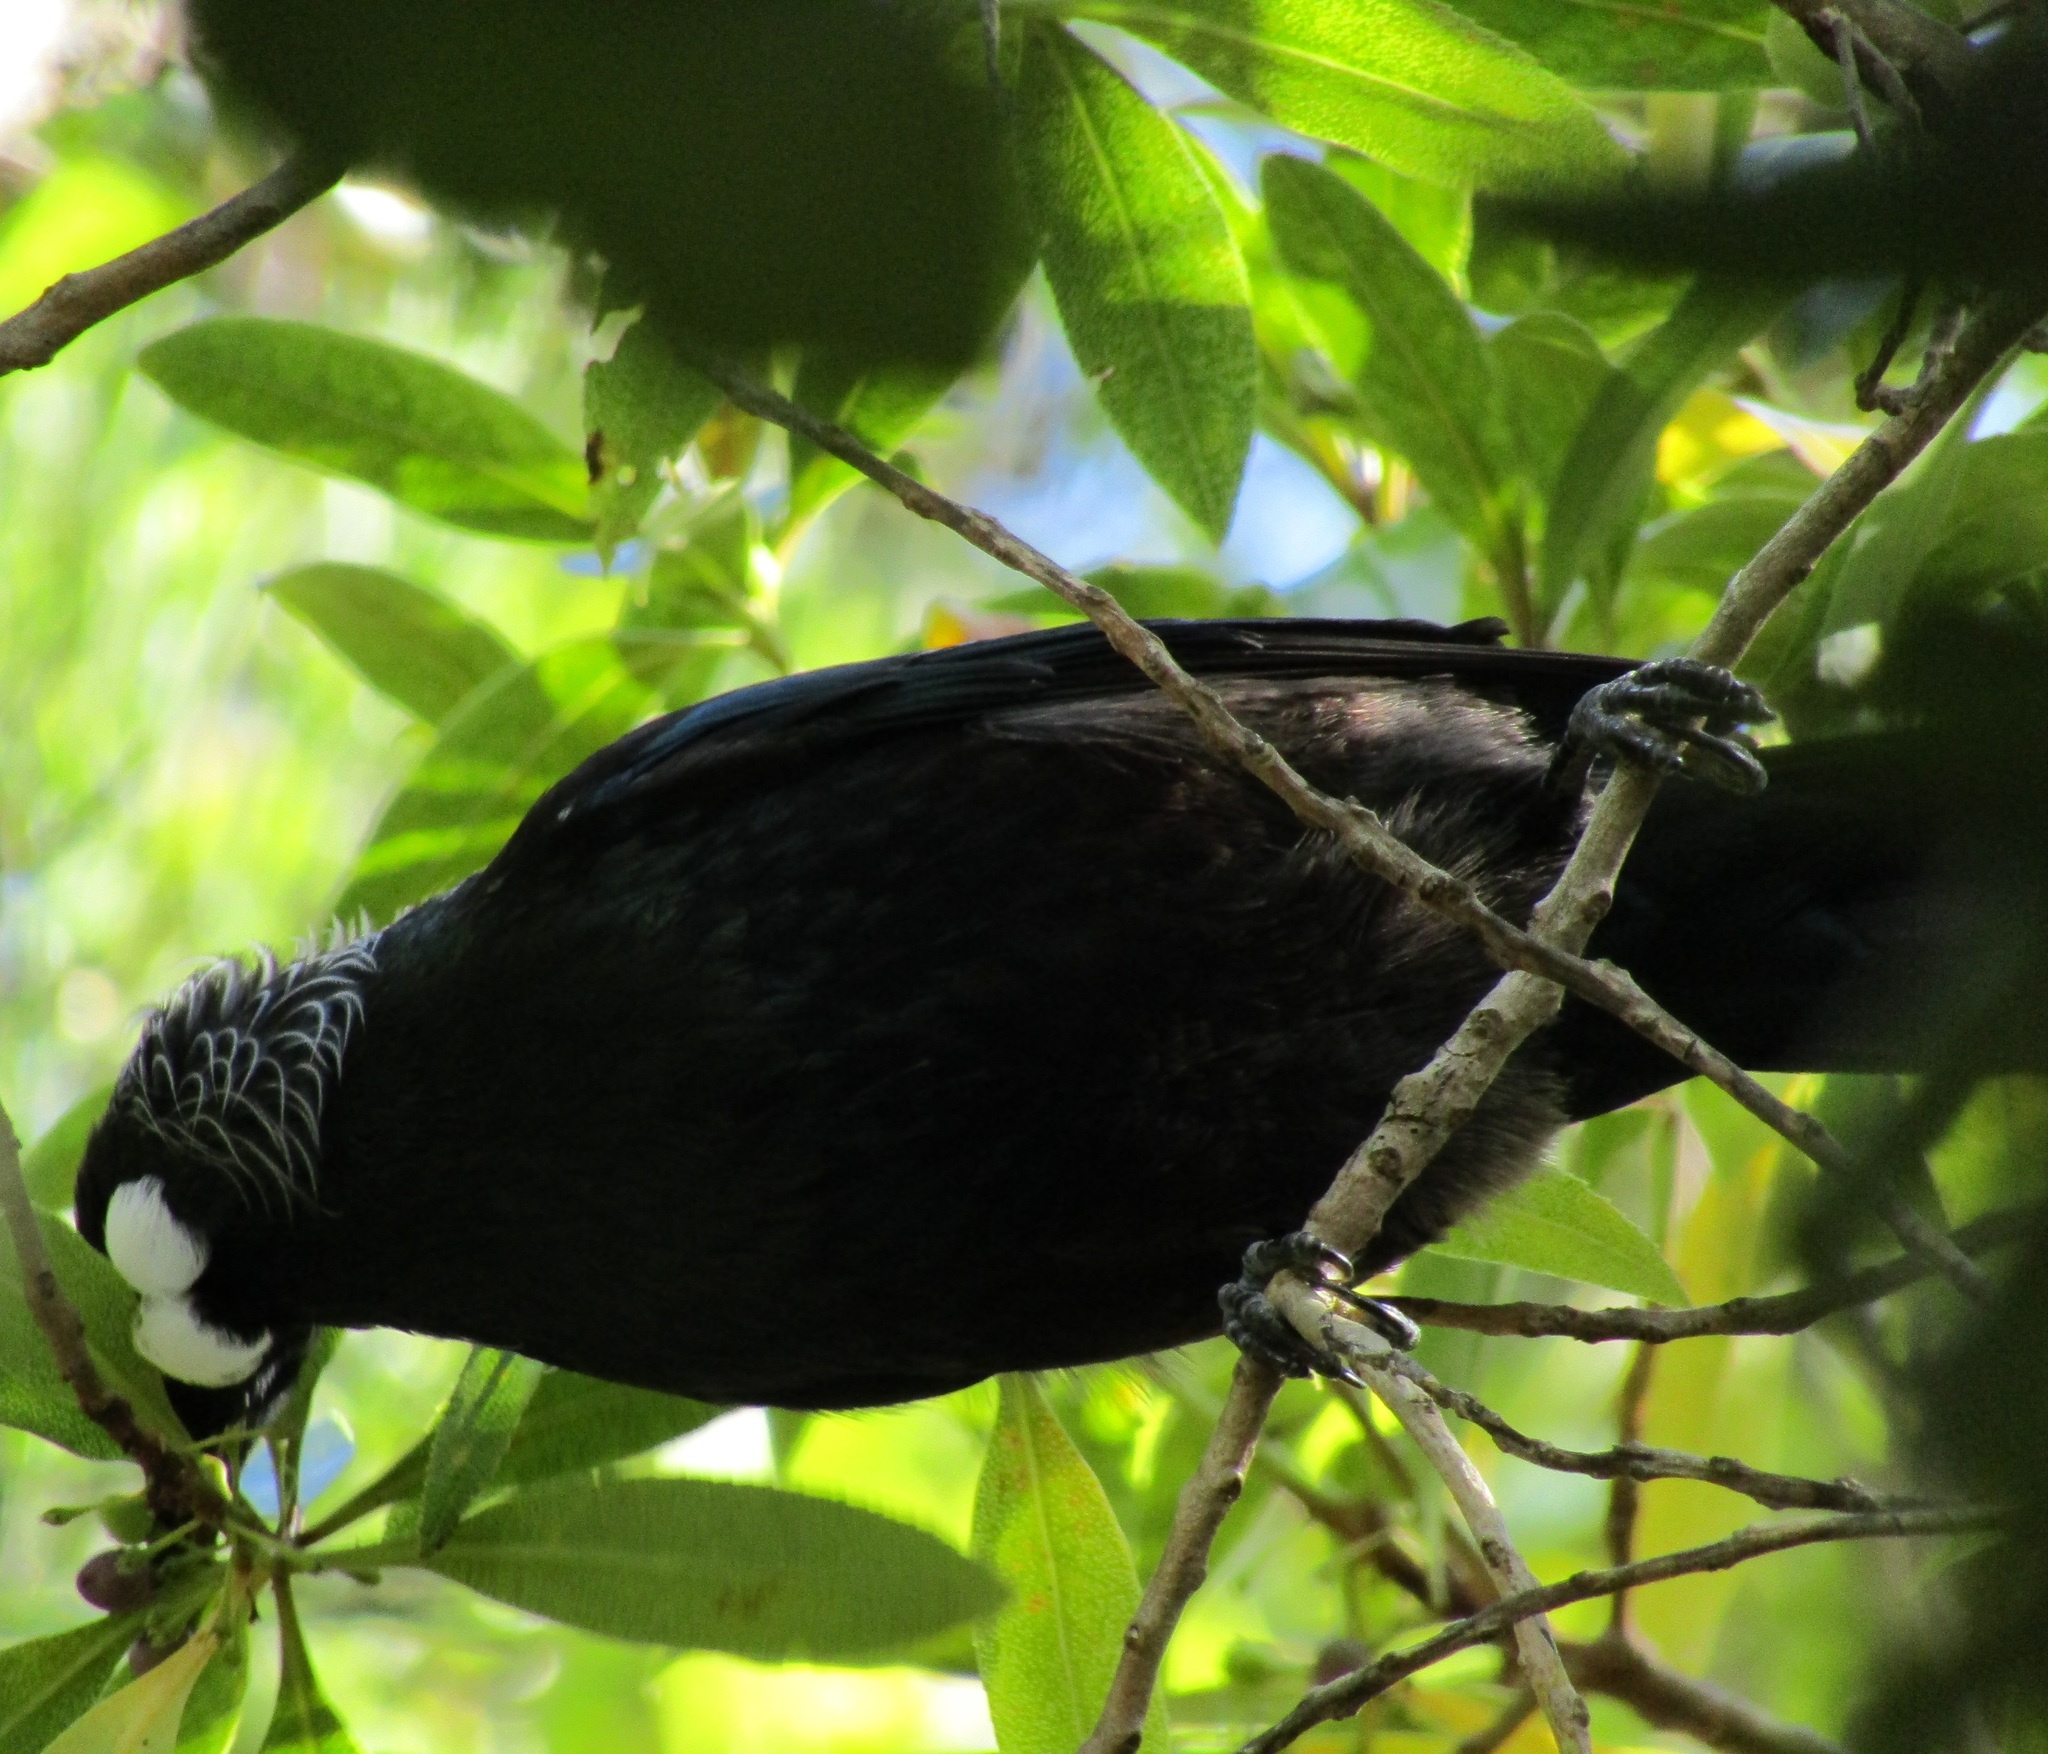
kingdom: Animalia
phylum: Chordata
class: Aves
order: Passeriformes
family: Meliphagidae
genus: Prosthemadera
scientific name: Prosthemadera novaeseelandiae
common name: Tui
